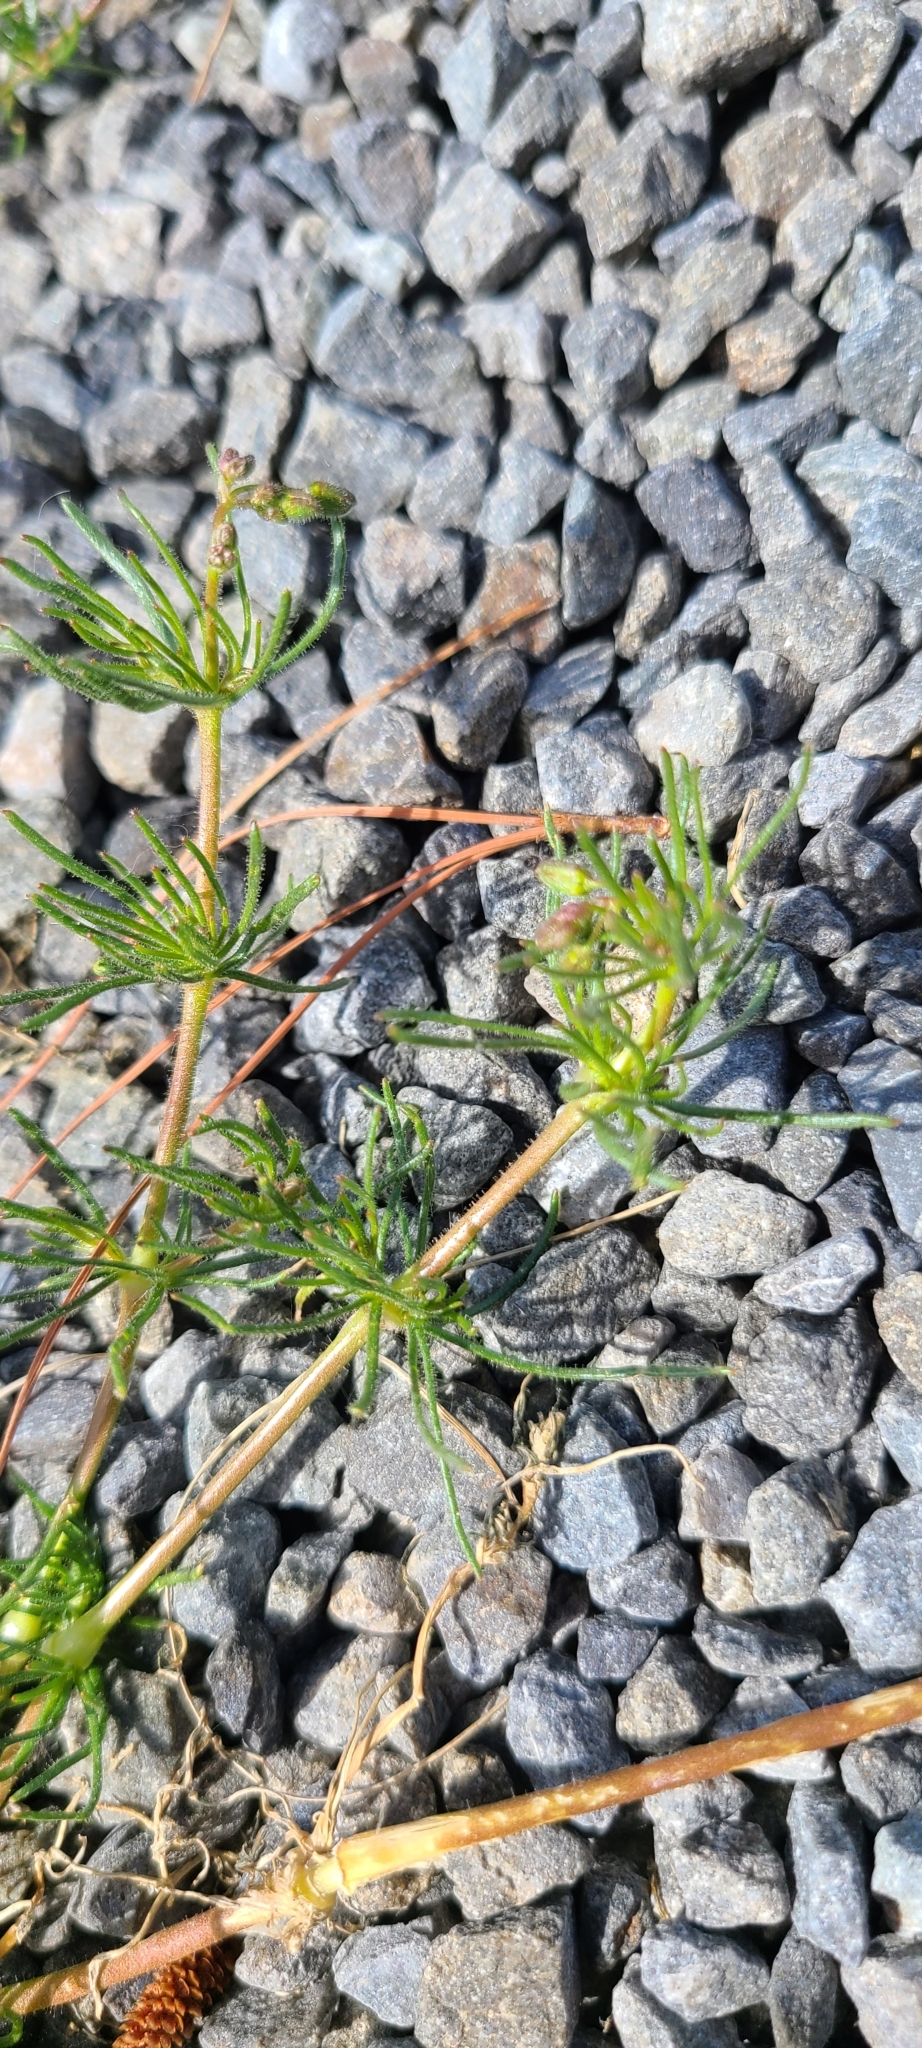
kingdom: Plantae
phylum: Tracheophyta
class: Magnoliopsida
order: Caryophyllales
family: Caryophyllaceae
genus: Spergula
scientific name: Spergula arvensis
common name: Corn spurrey
